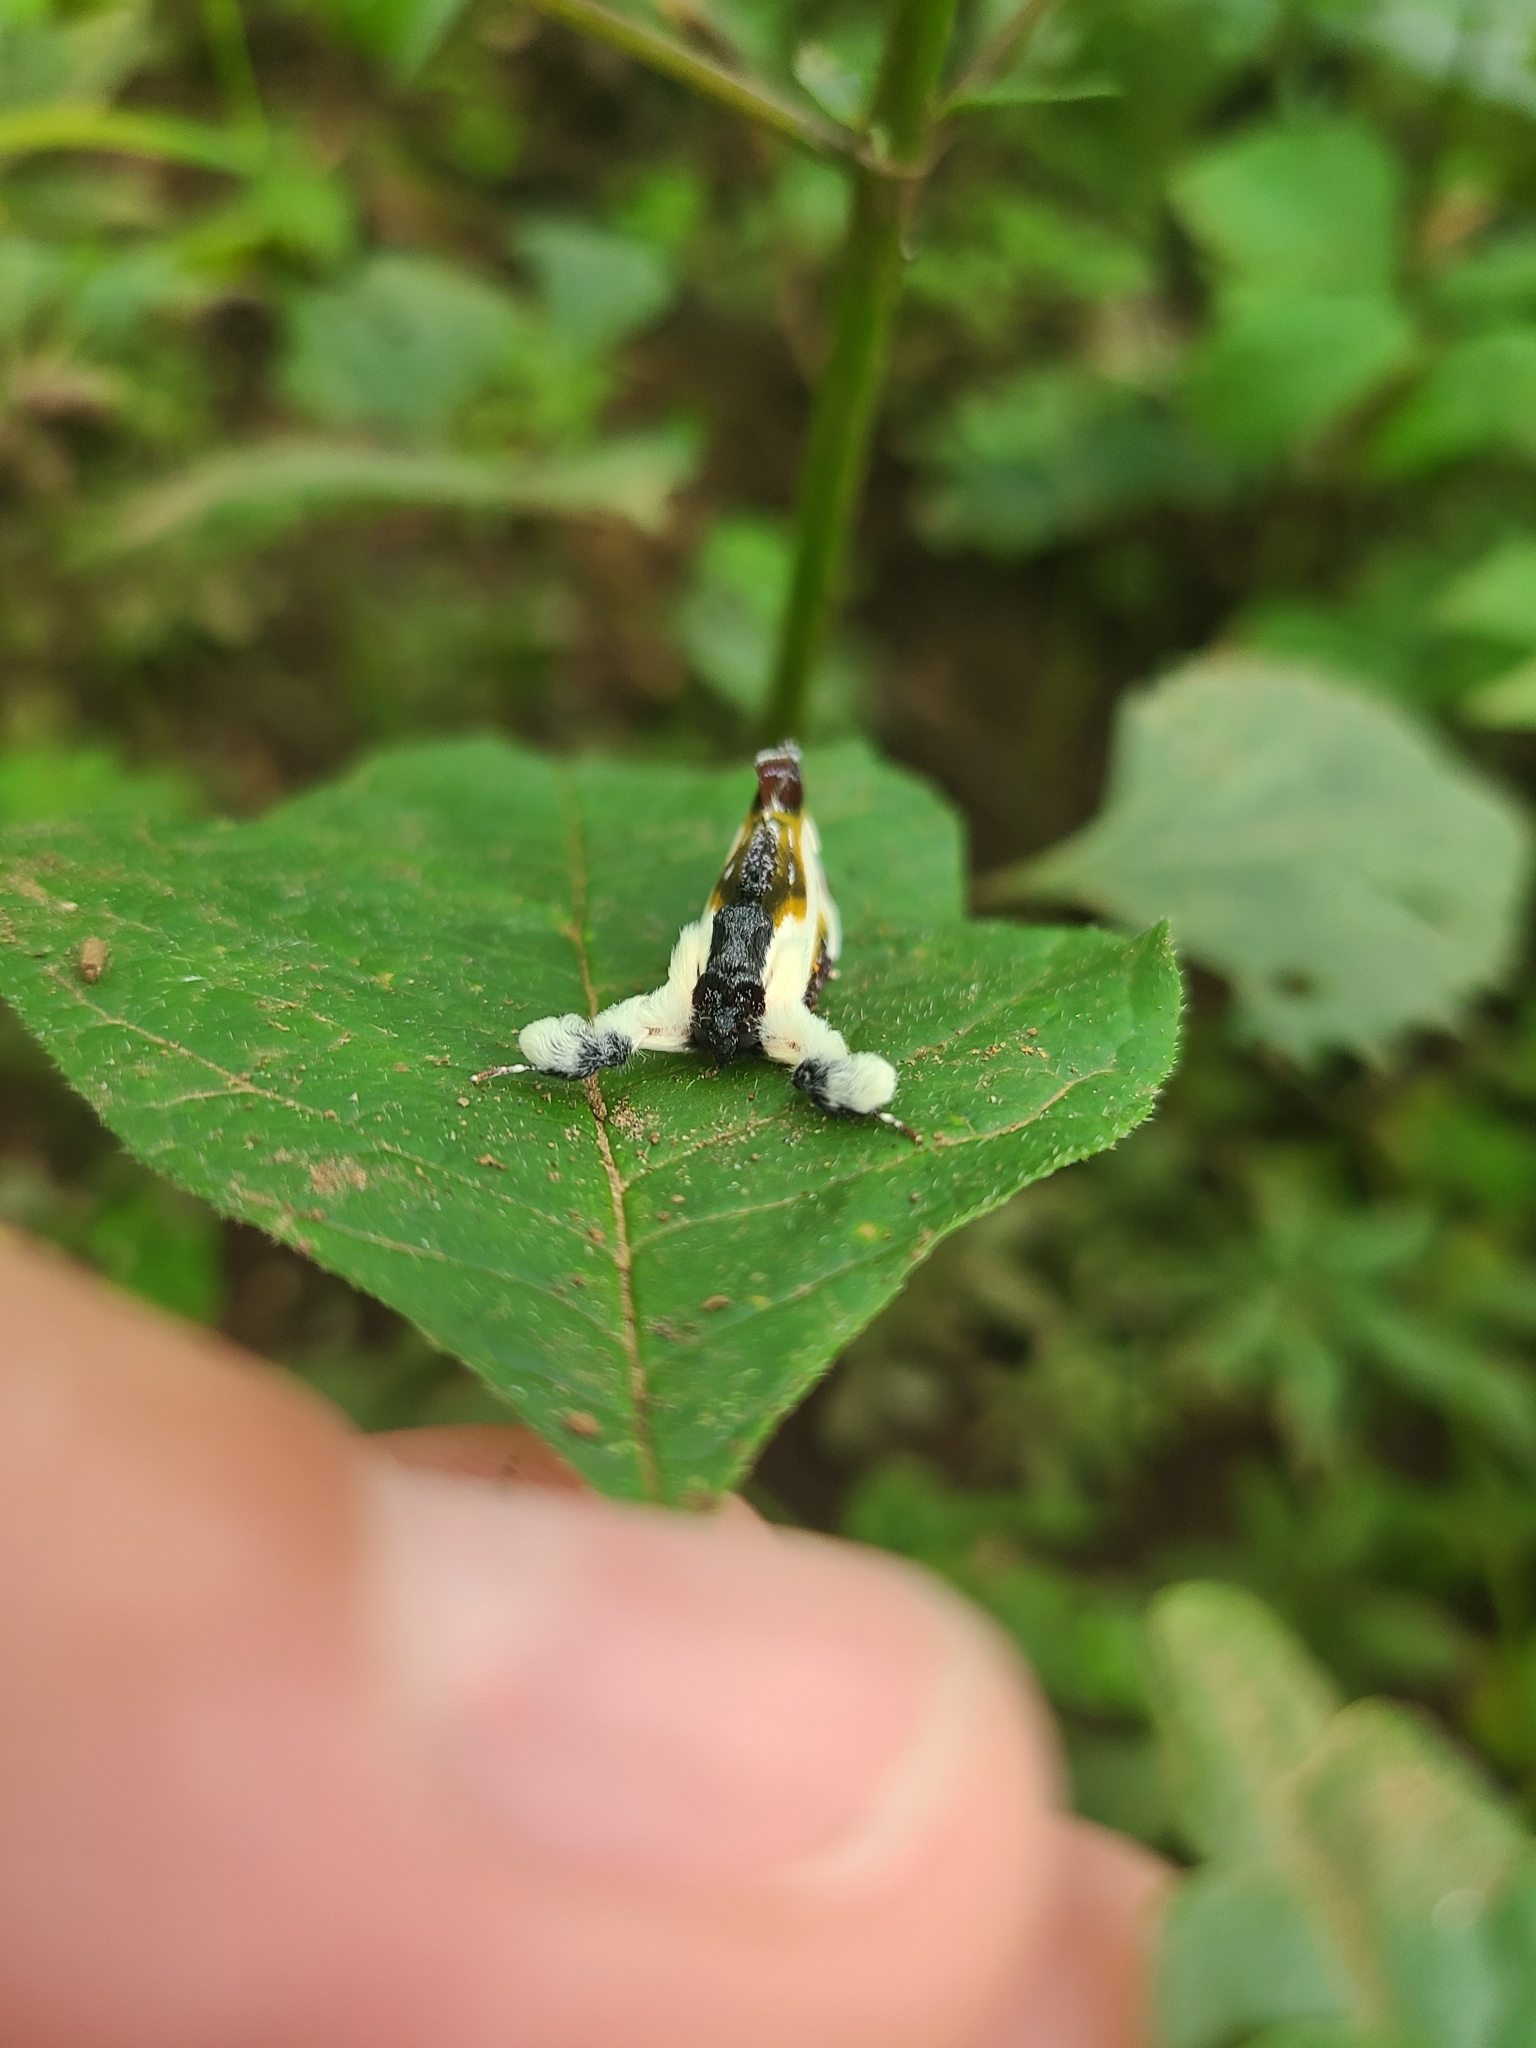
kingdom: Animalia
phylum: Arthropoda
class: Insecta
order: Lepidoptera
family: Noctuidae
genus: Eudryas
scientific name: Eudryas grata
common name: Beautiful wood-nymph
